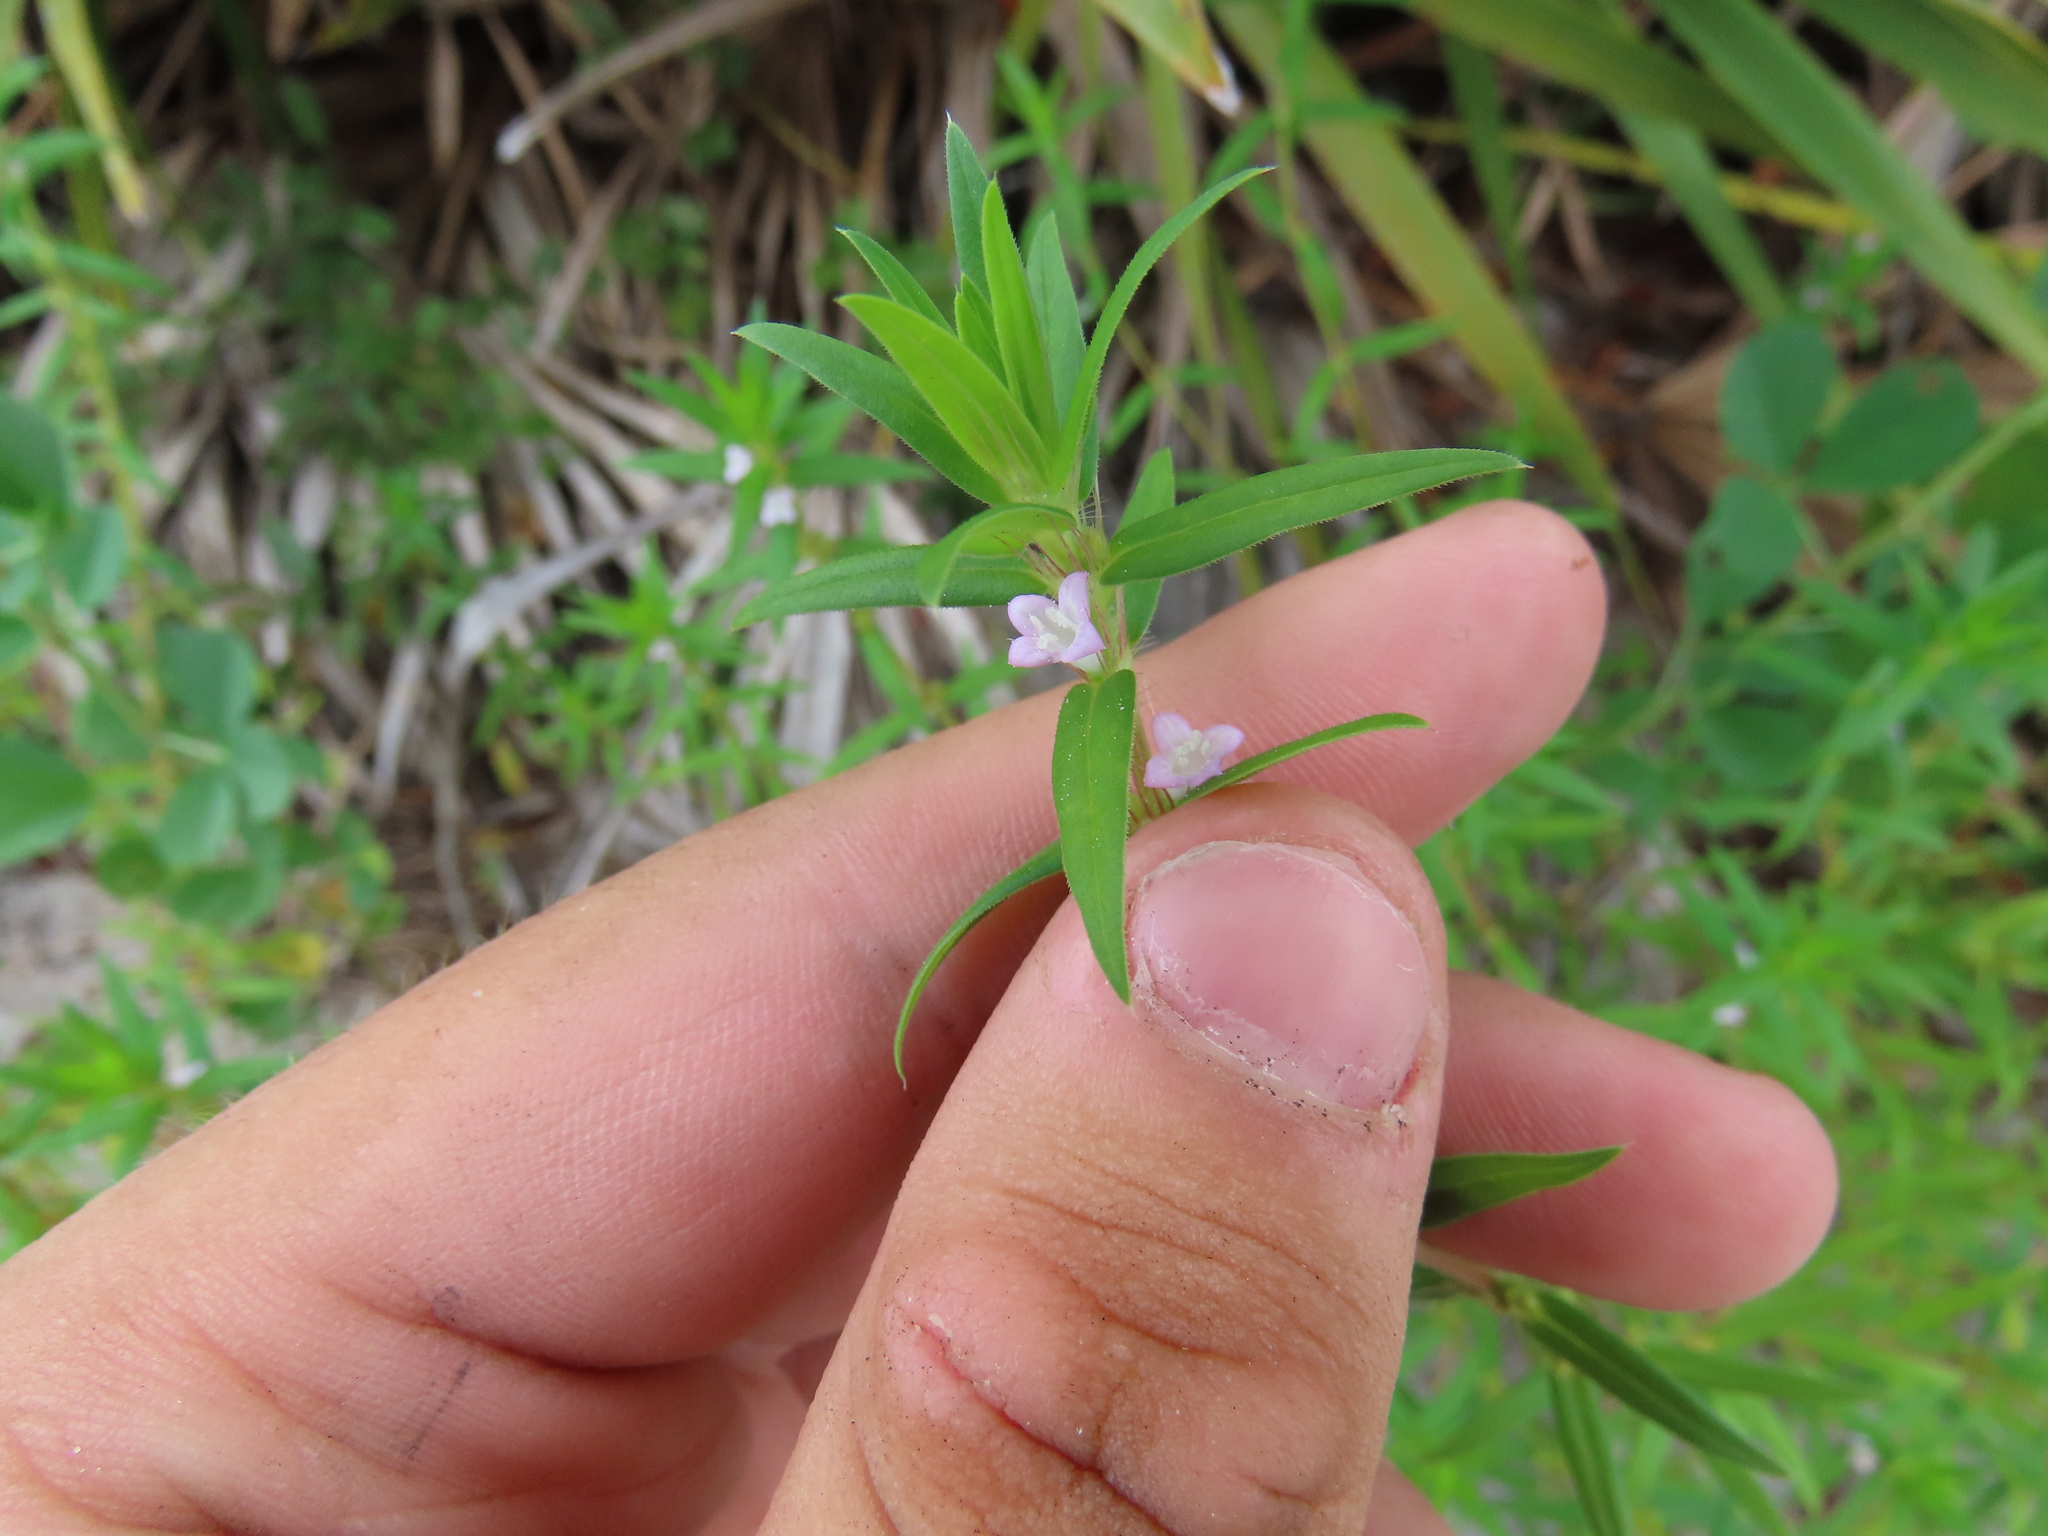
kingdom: Plantae
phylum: Tracheophyta
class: Magnoliopsida
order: Gentianales
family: Rubiaceae
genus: Hexasepalum
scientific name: Hexasepalum teres
